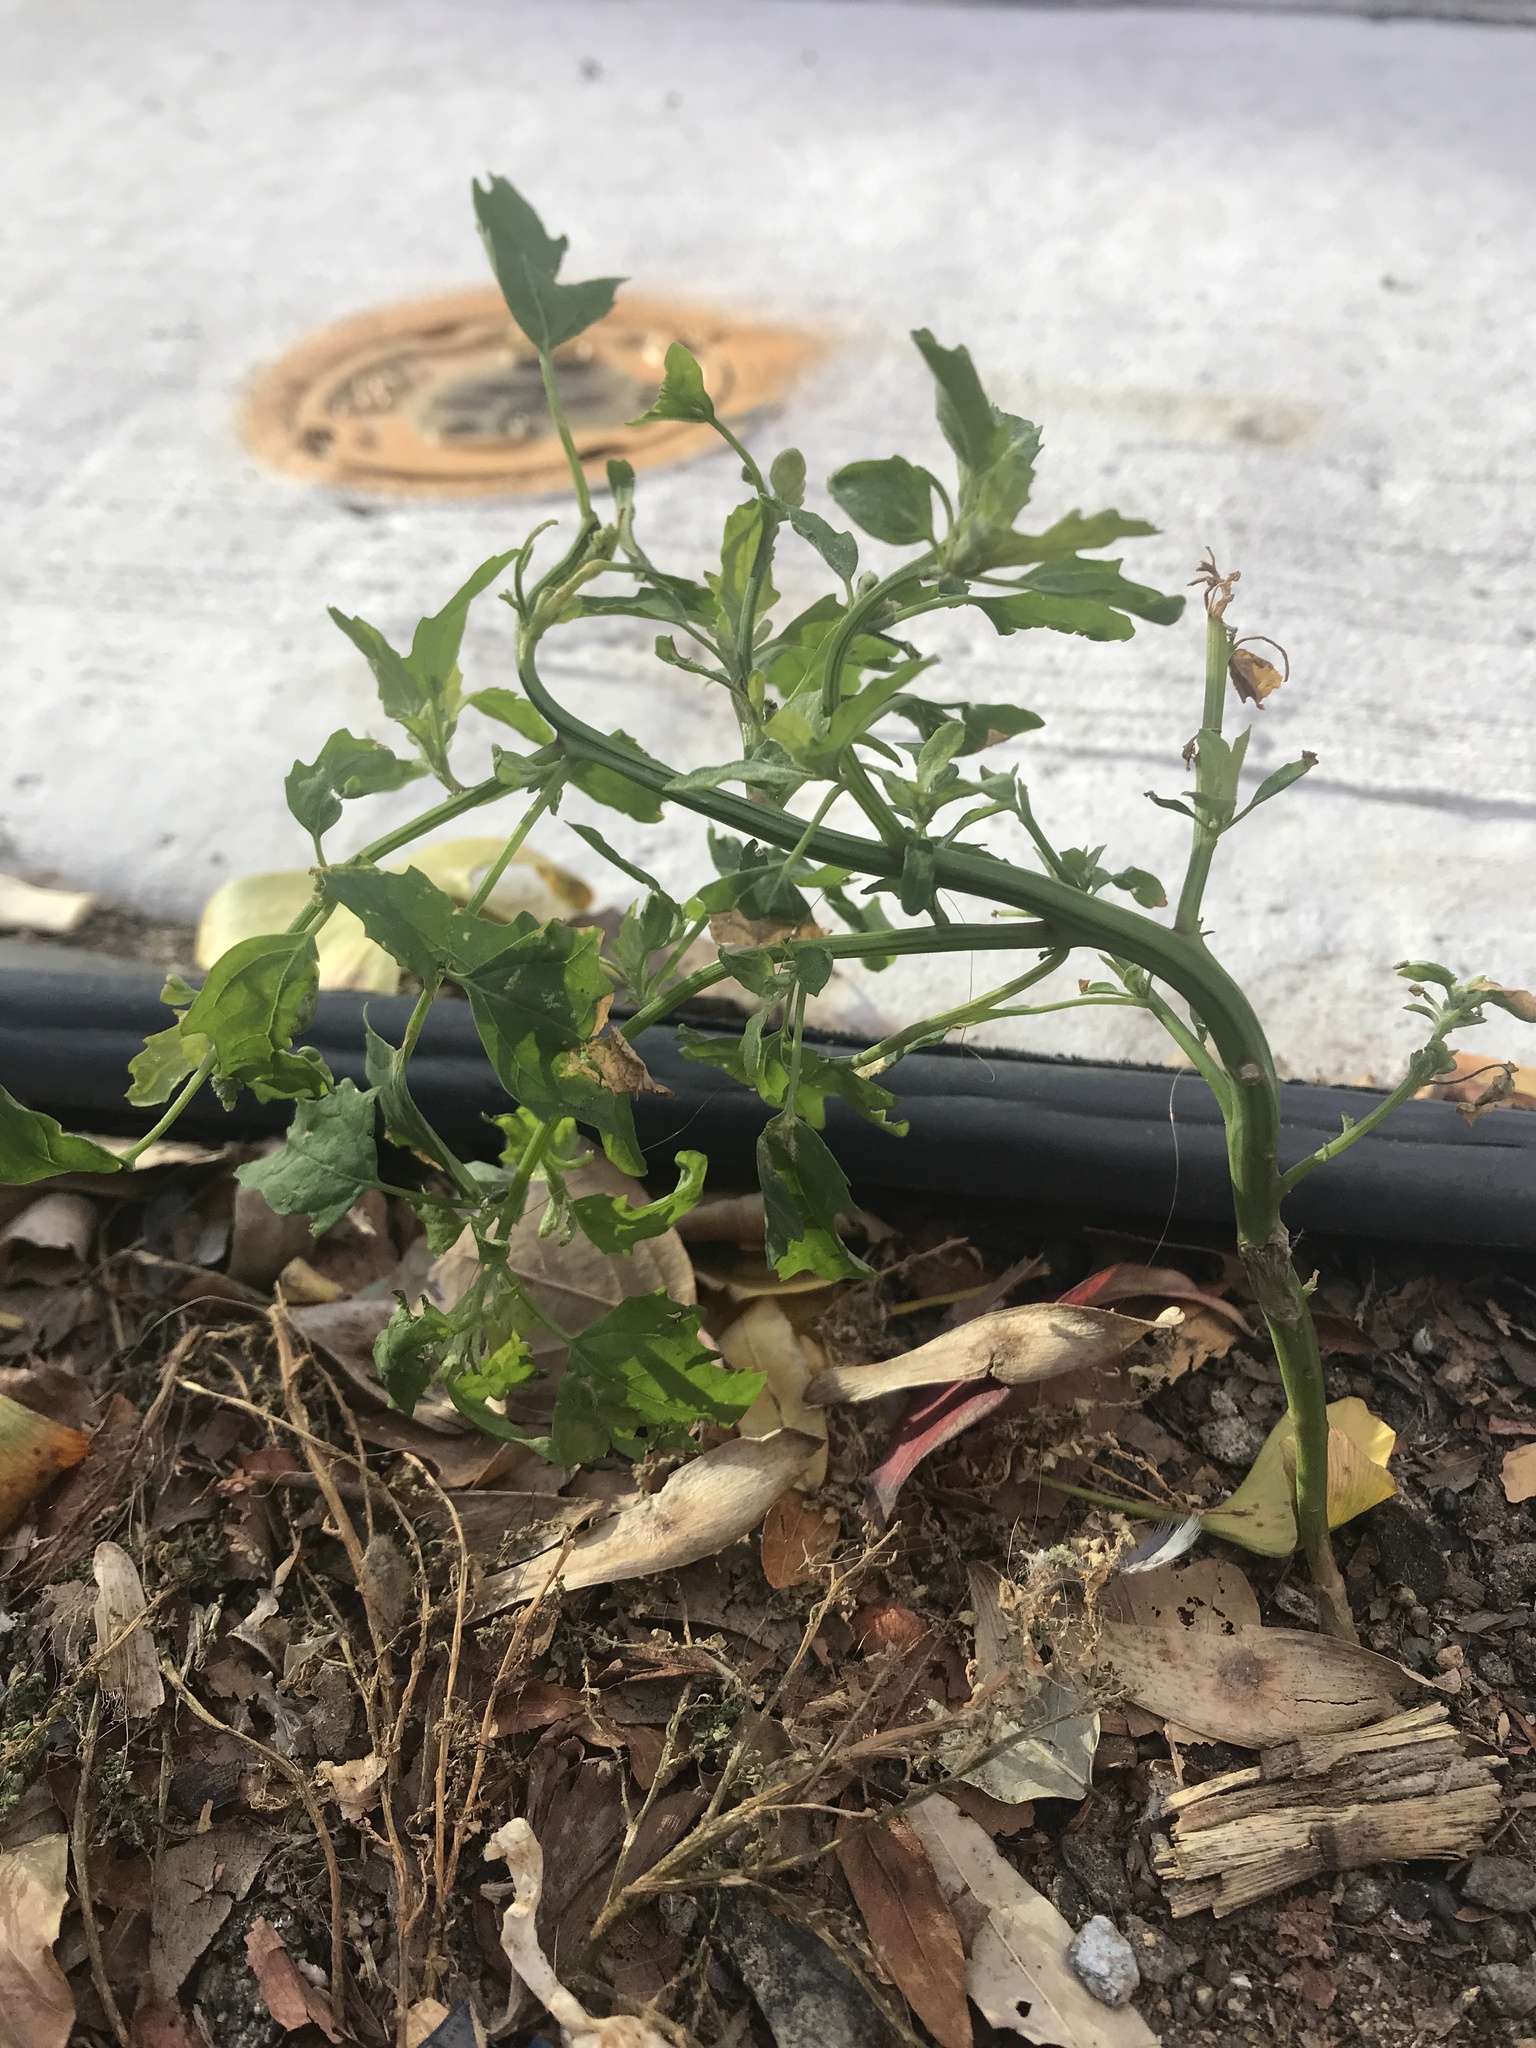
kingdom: Plantae
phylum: Tracheophyta
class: Magnoliopsida
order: Solanales
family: Solanaceae
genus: Solanum
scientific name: Solanum lycopersicum
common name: Garden tomato
